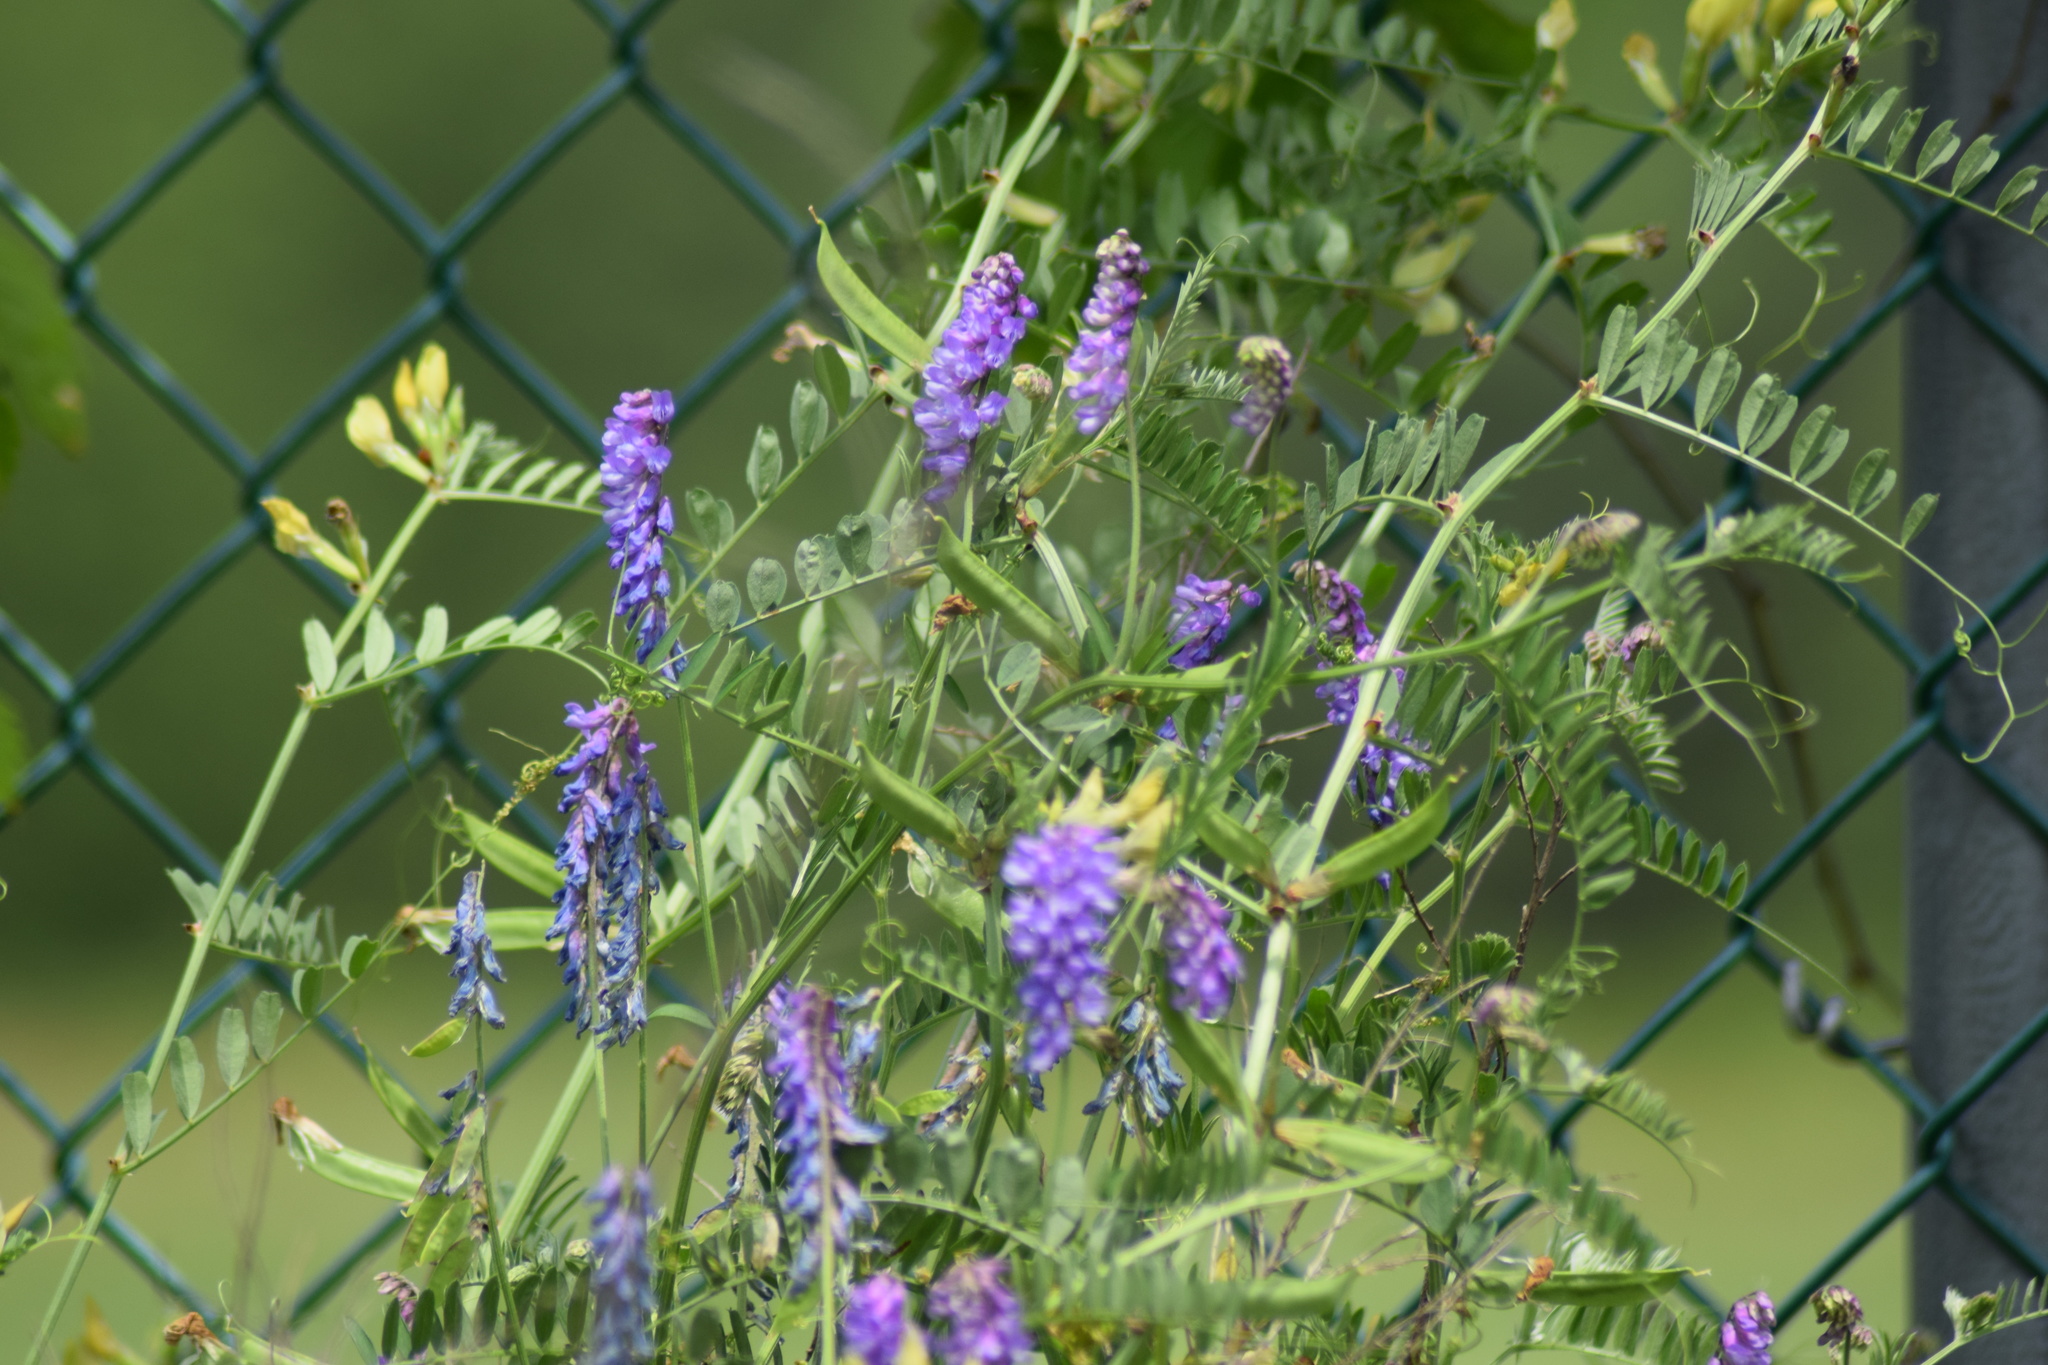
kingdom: Plantae
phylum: Tracheophyta
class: Magnoliopsida
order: Fabales
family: Fabaceae
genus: Vicia
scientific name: Vicia cracca
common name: Bird vetch
